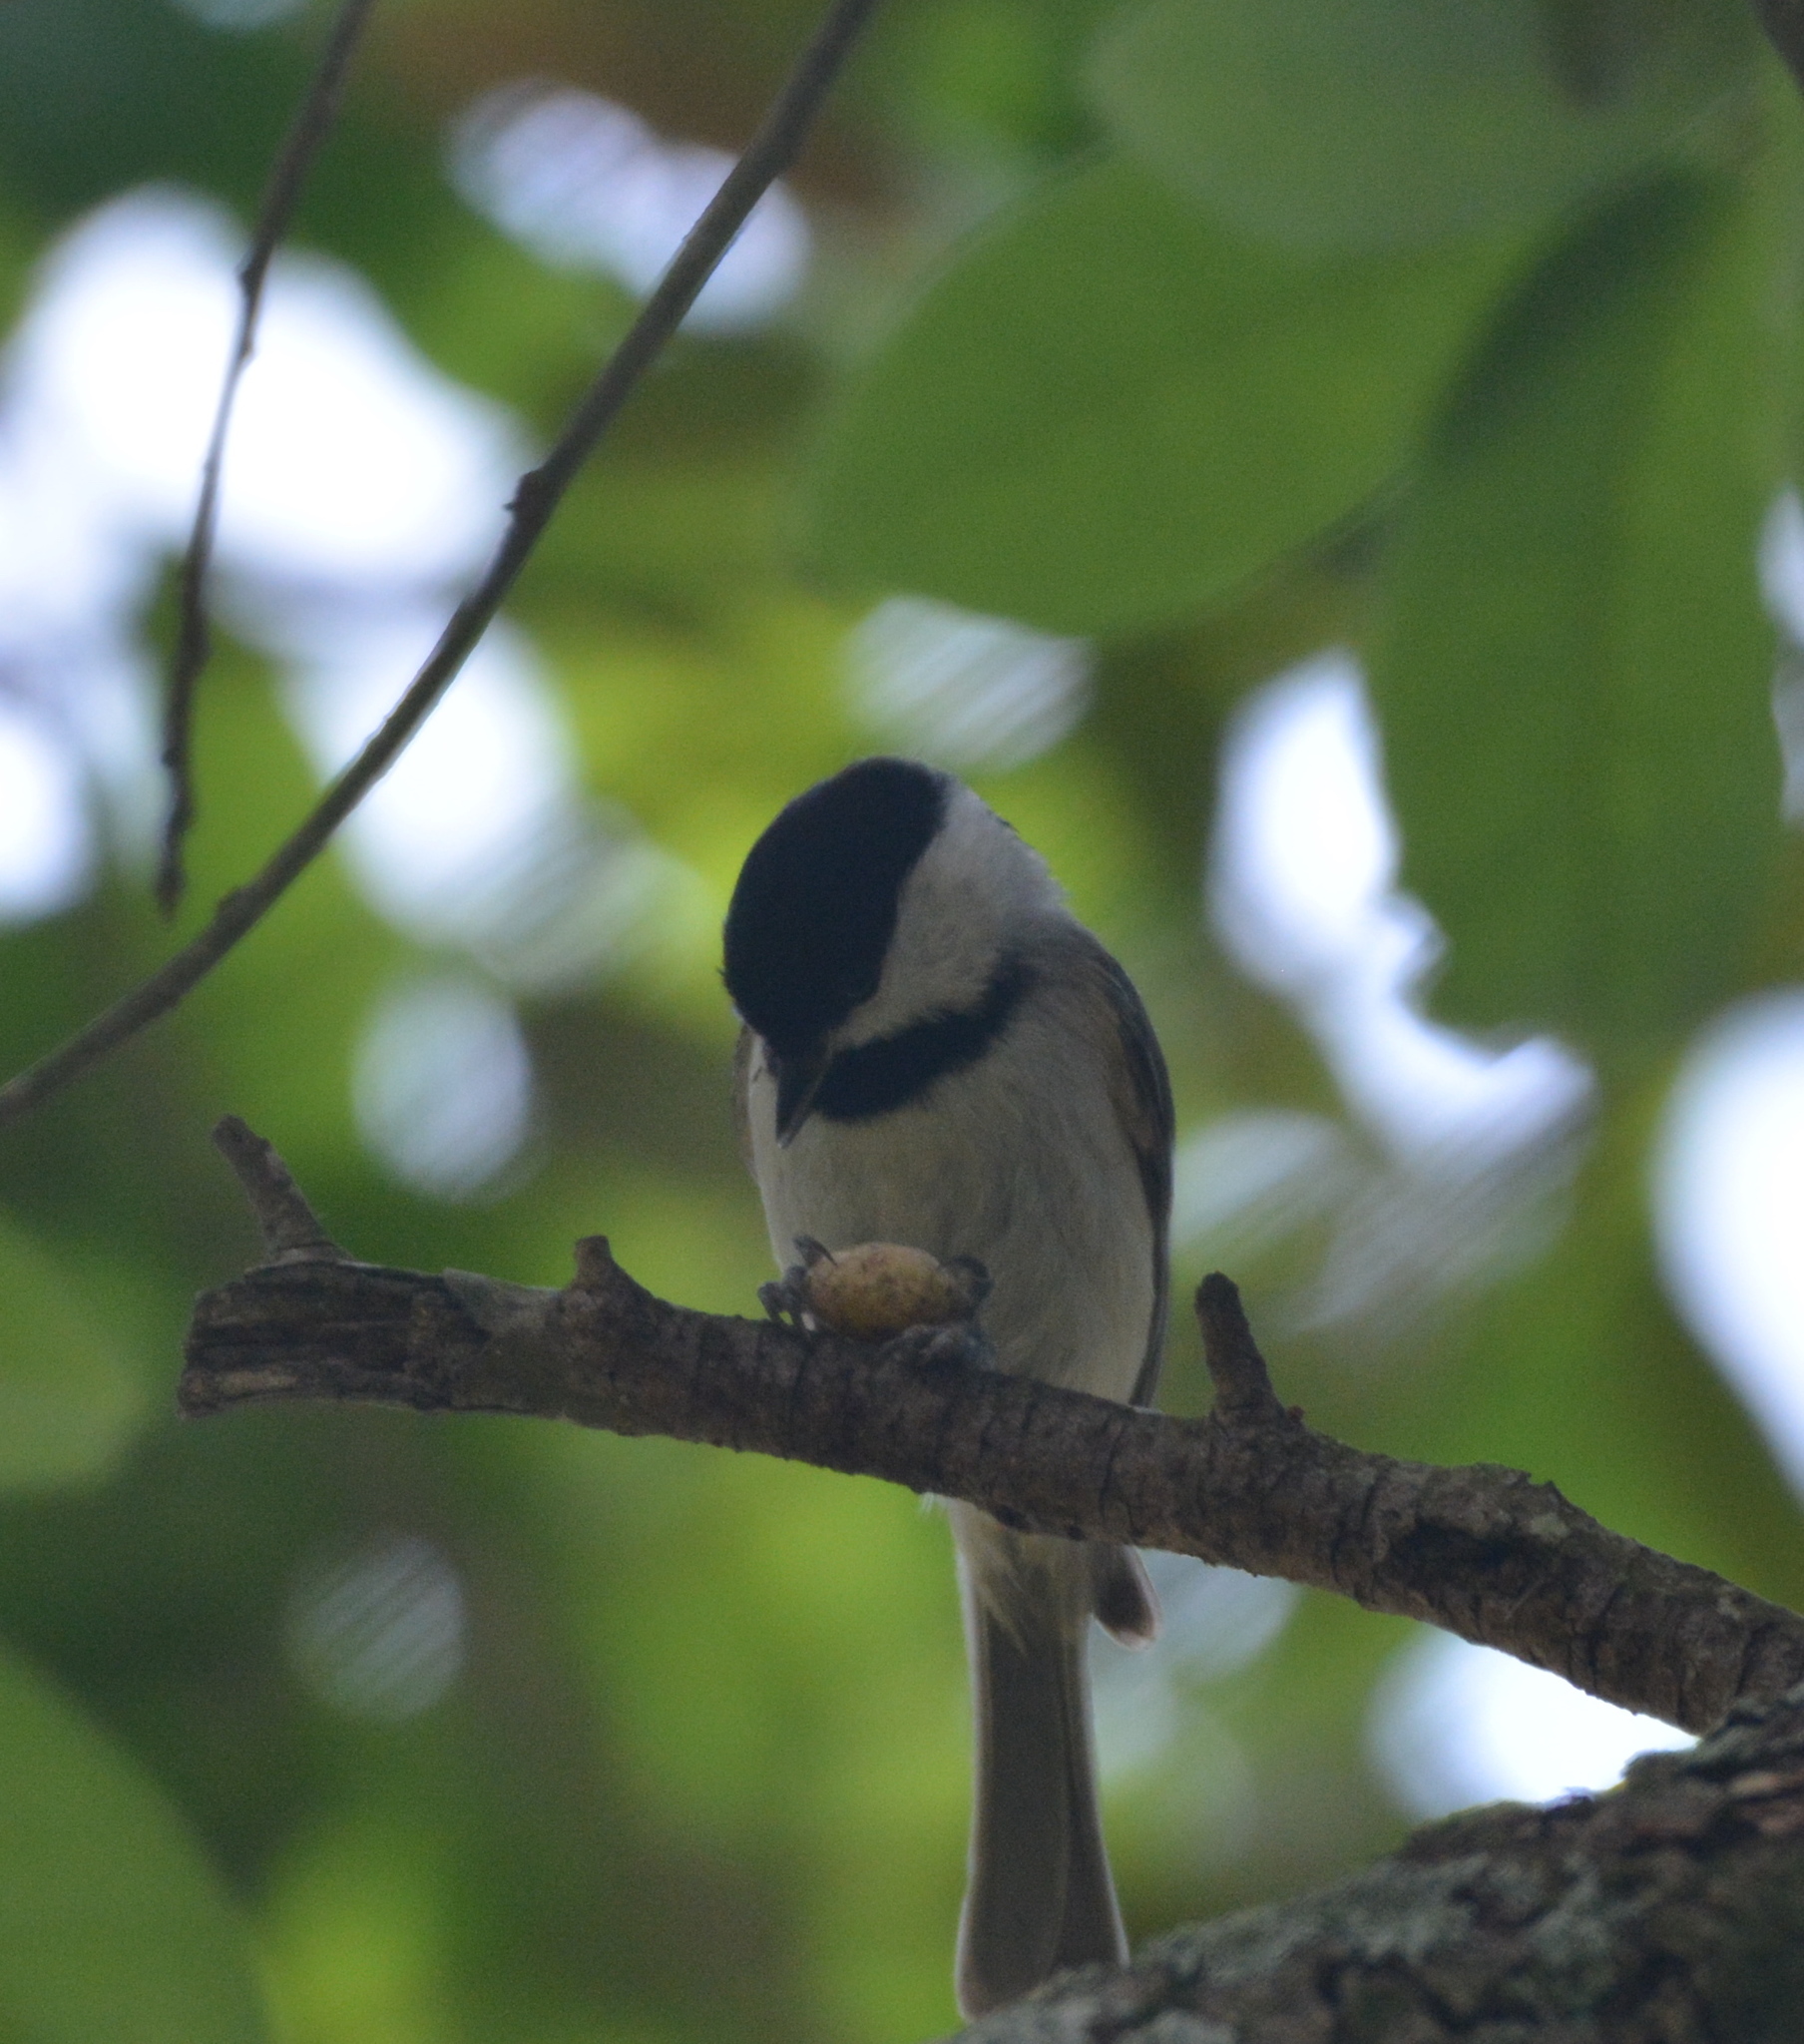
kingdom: Animalia
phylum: Chordata
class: Aves
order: Passeriformes
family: Paridae
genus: Poecile
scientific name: Poecile carolinensis
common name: Carolina chickadee
